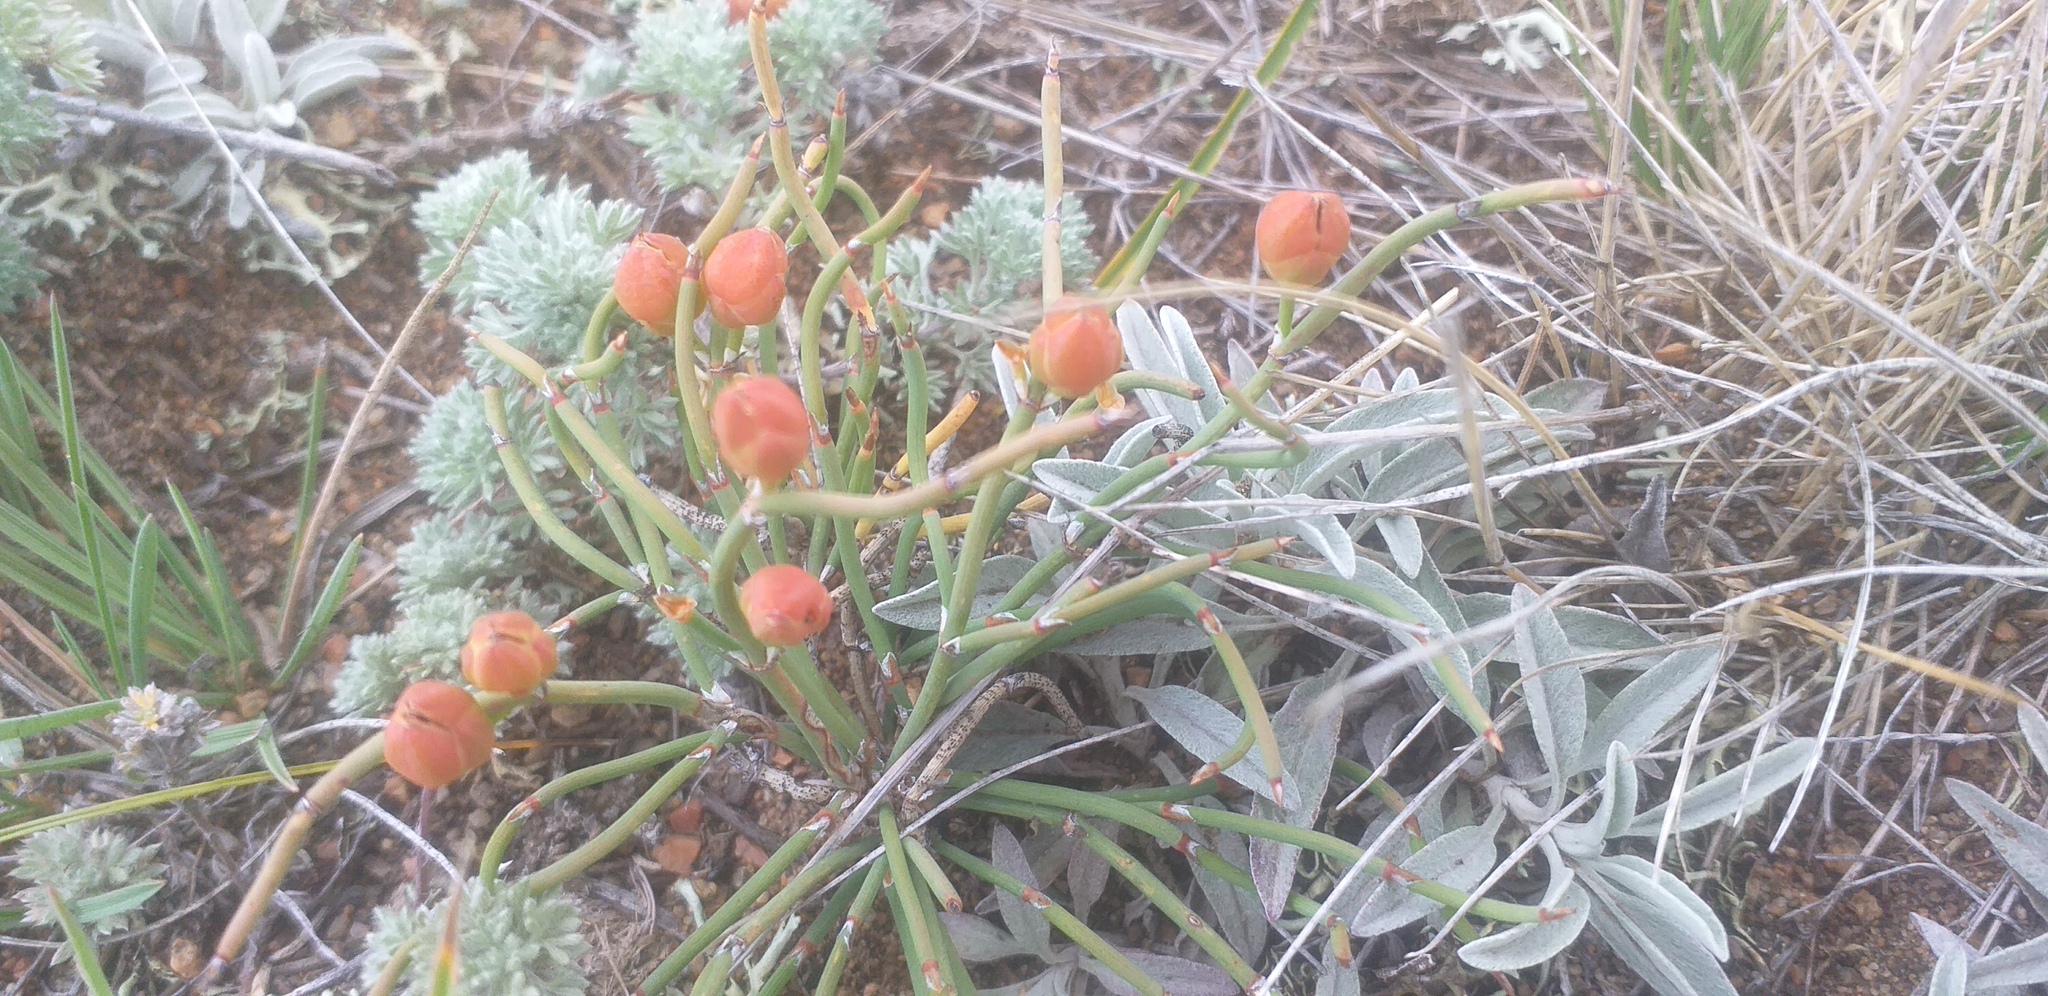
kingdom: Plantae
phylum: Tracheophyta
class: Gnetopsida
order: Ephedrales
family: Ephedraceae
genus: Ephedra
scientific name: Ephedra sinica
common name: Chinese ephedra
